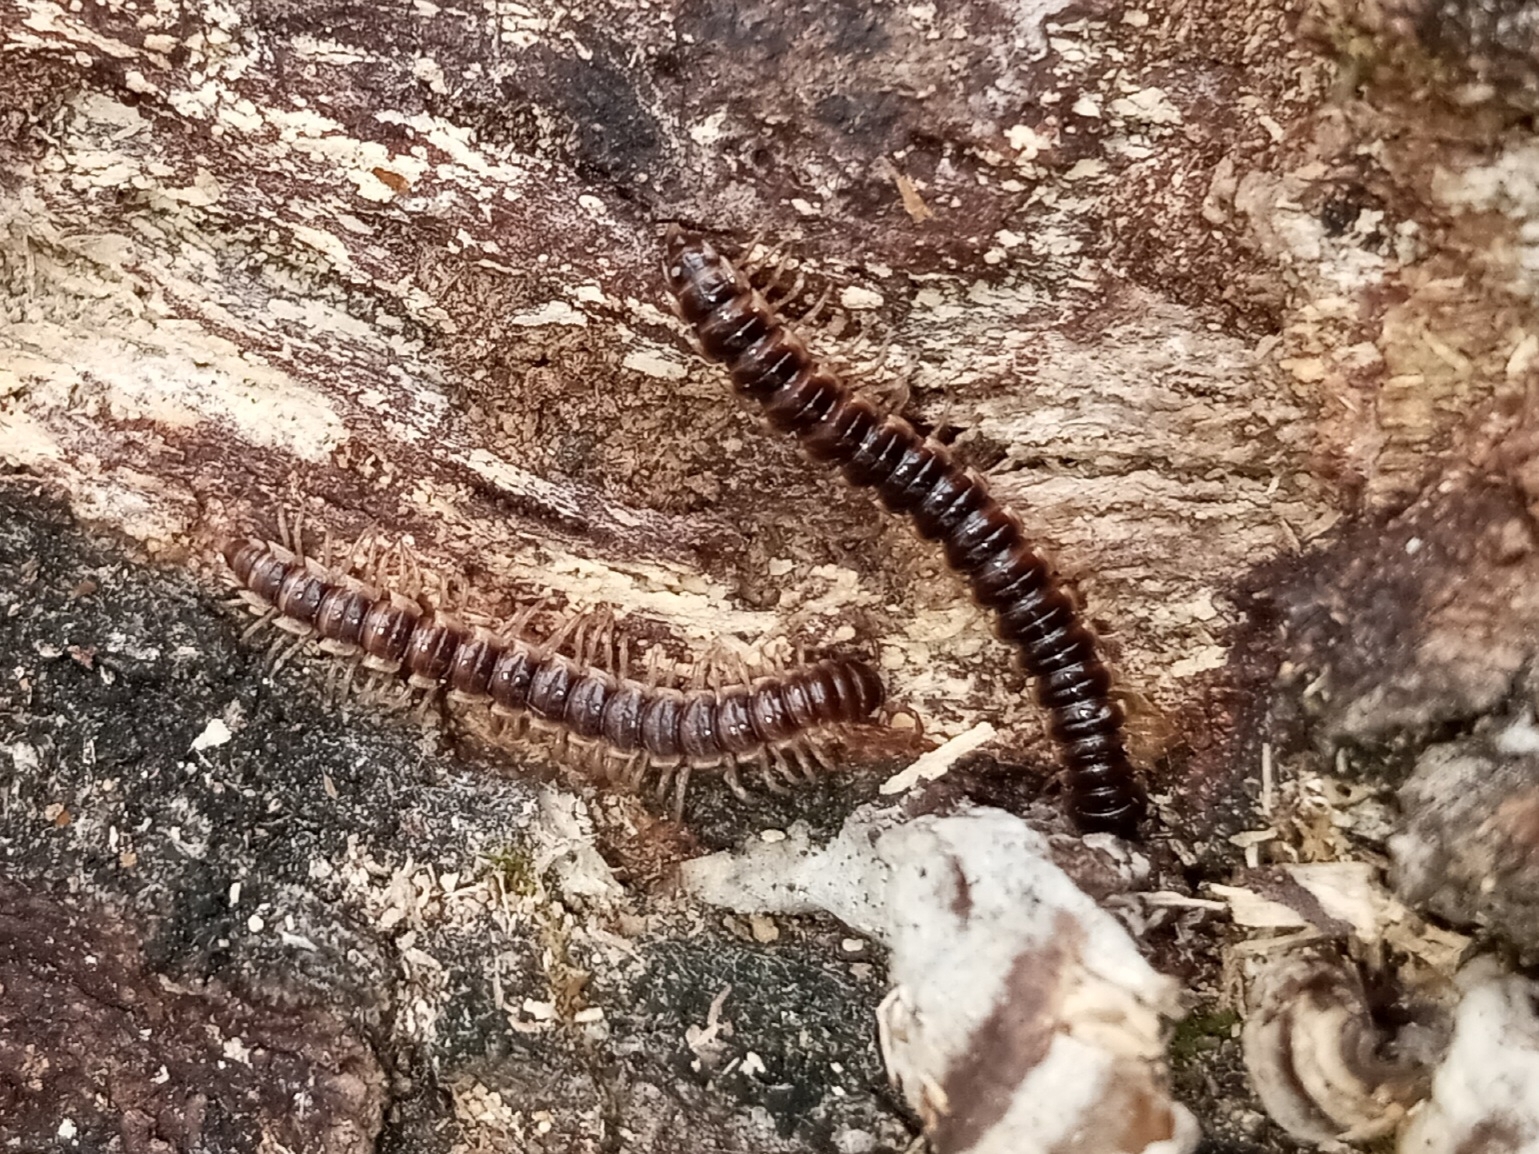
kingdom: Animalia
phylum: Arthropoda
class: Diplopoda
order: Polydesmida
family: Paradoxosomatidae
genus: Oxidus
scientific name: Oxidus gracilis
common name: Greenhouse millipede
